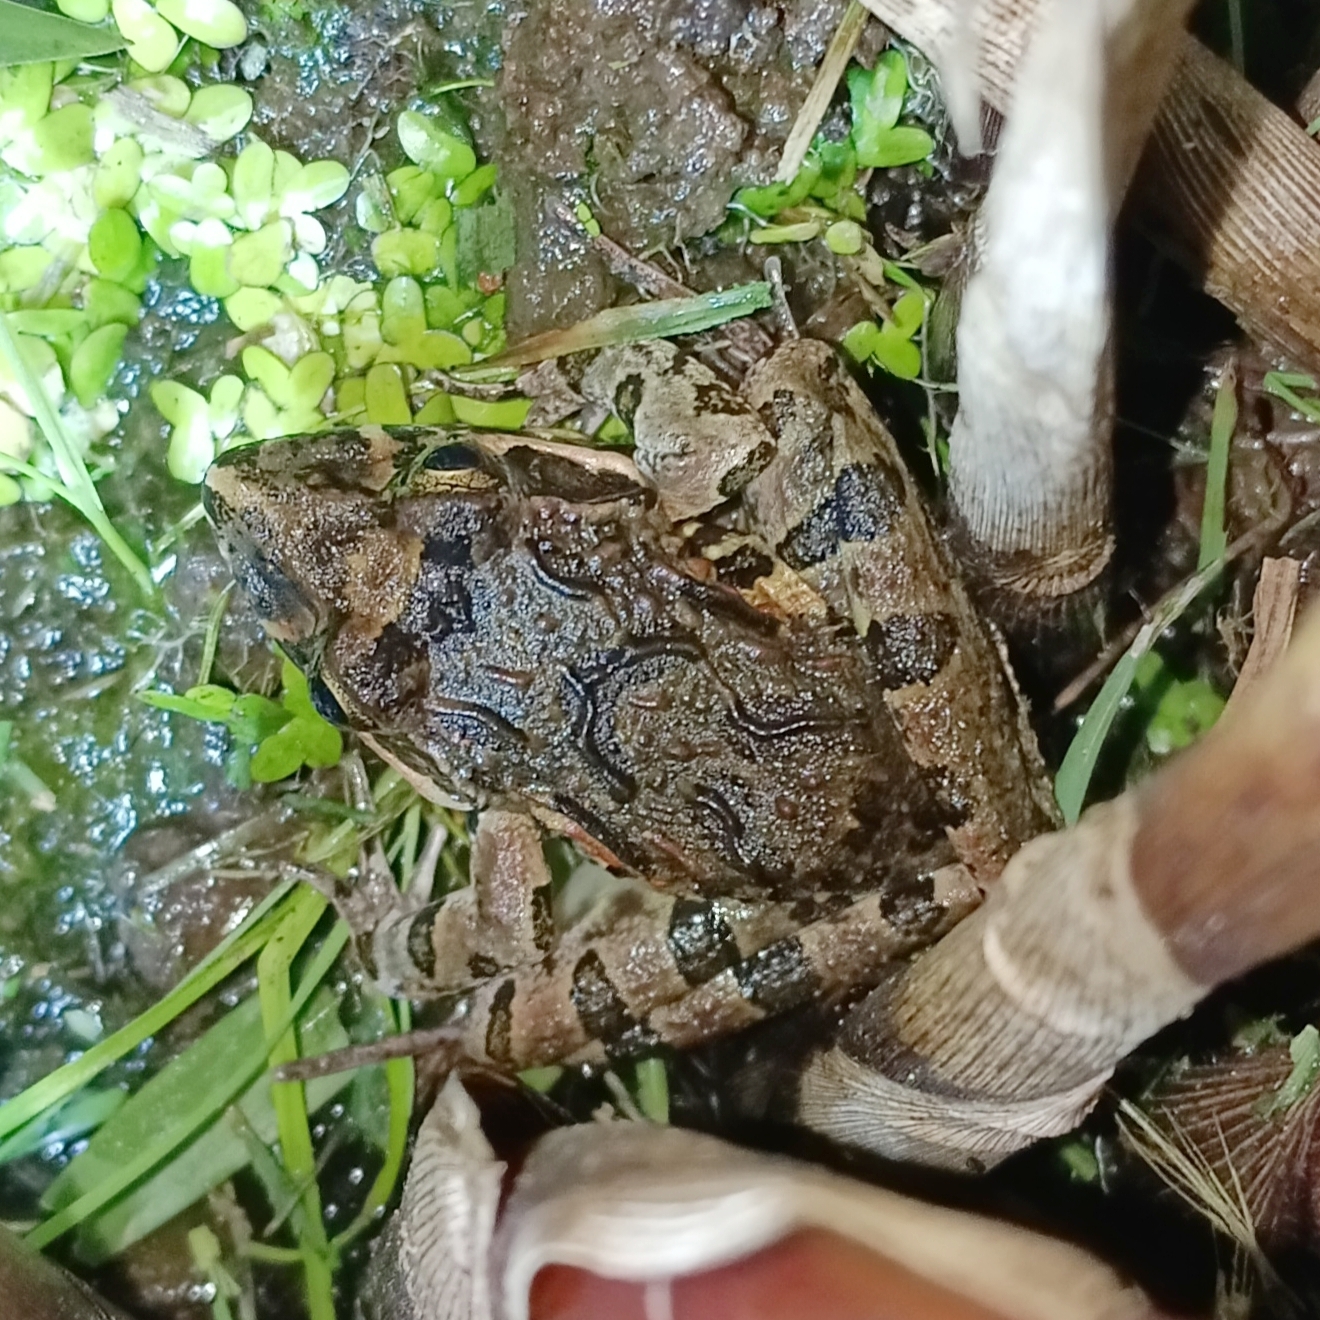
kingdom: Animalia
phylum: Chordata
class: Amphibia
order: Anura
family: Pyxicephalidae
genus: Strongylopus
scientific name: Strongylopus grayii
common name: Gray's stream frog
